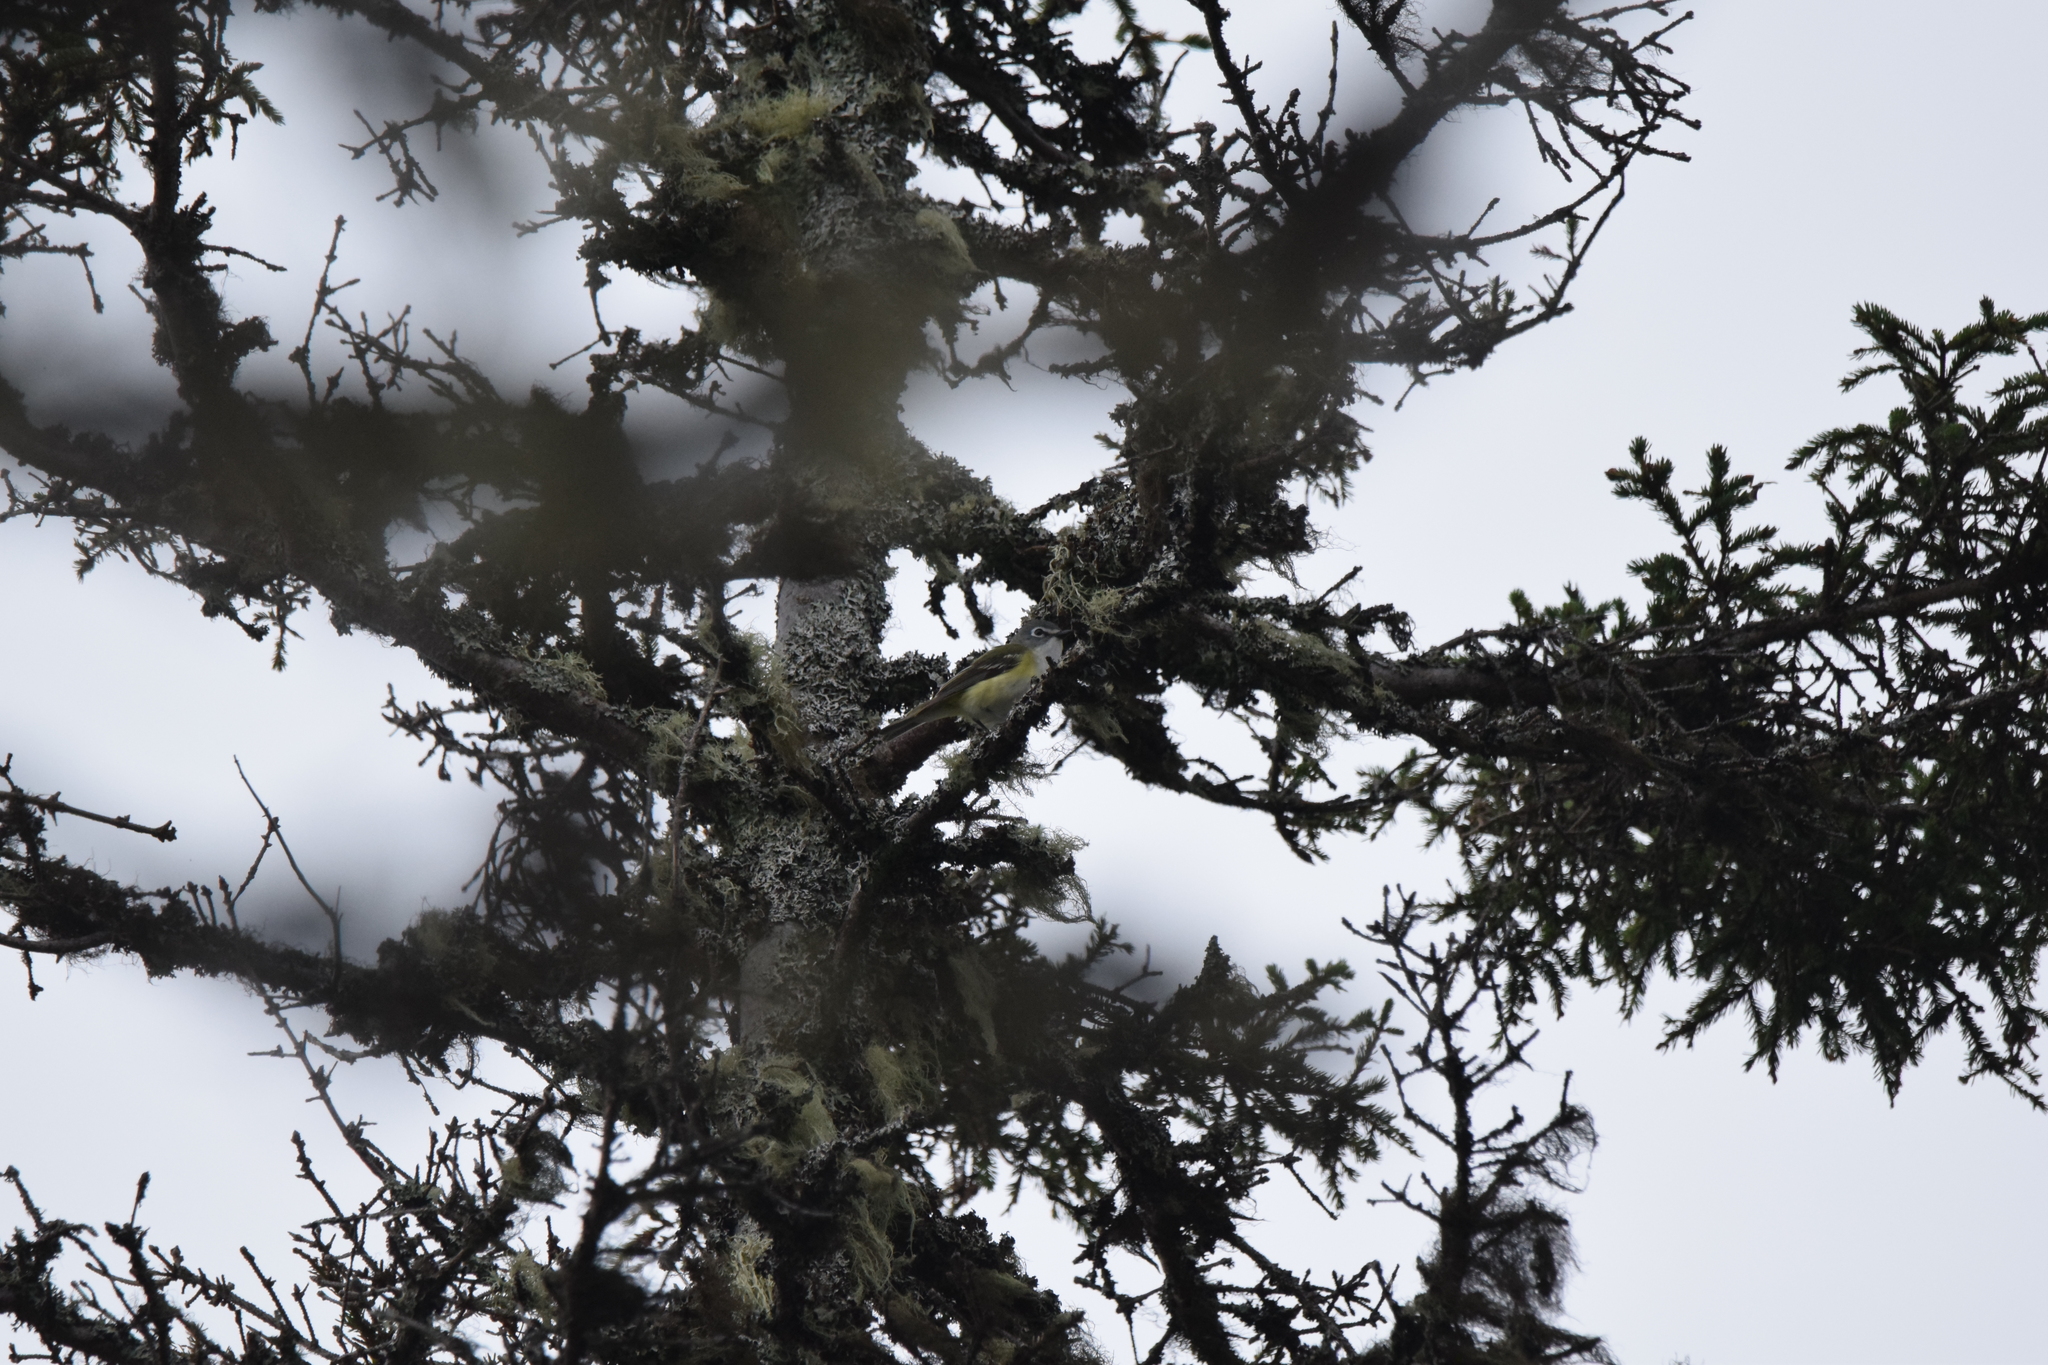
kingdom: Animalia
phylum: Chordata
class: Aves
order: Passeriformes
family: Vireonidae
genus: Vireo
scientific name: Vireo solitarius
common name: Blue-headed vireo
